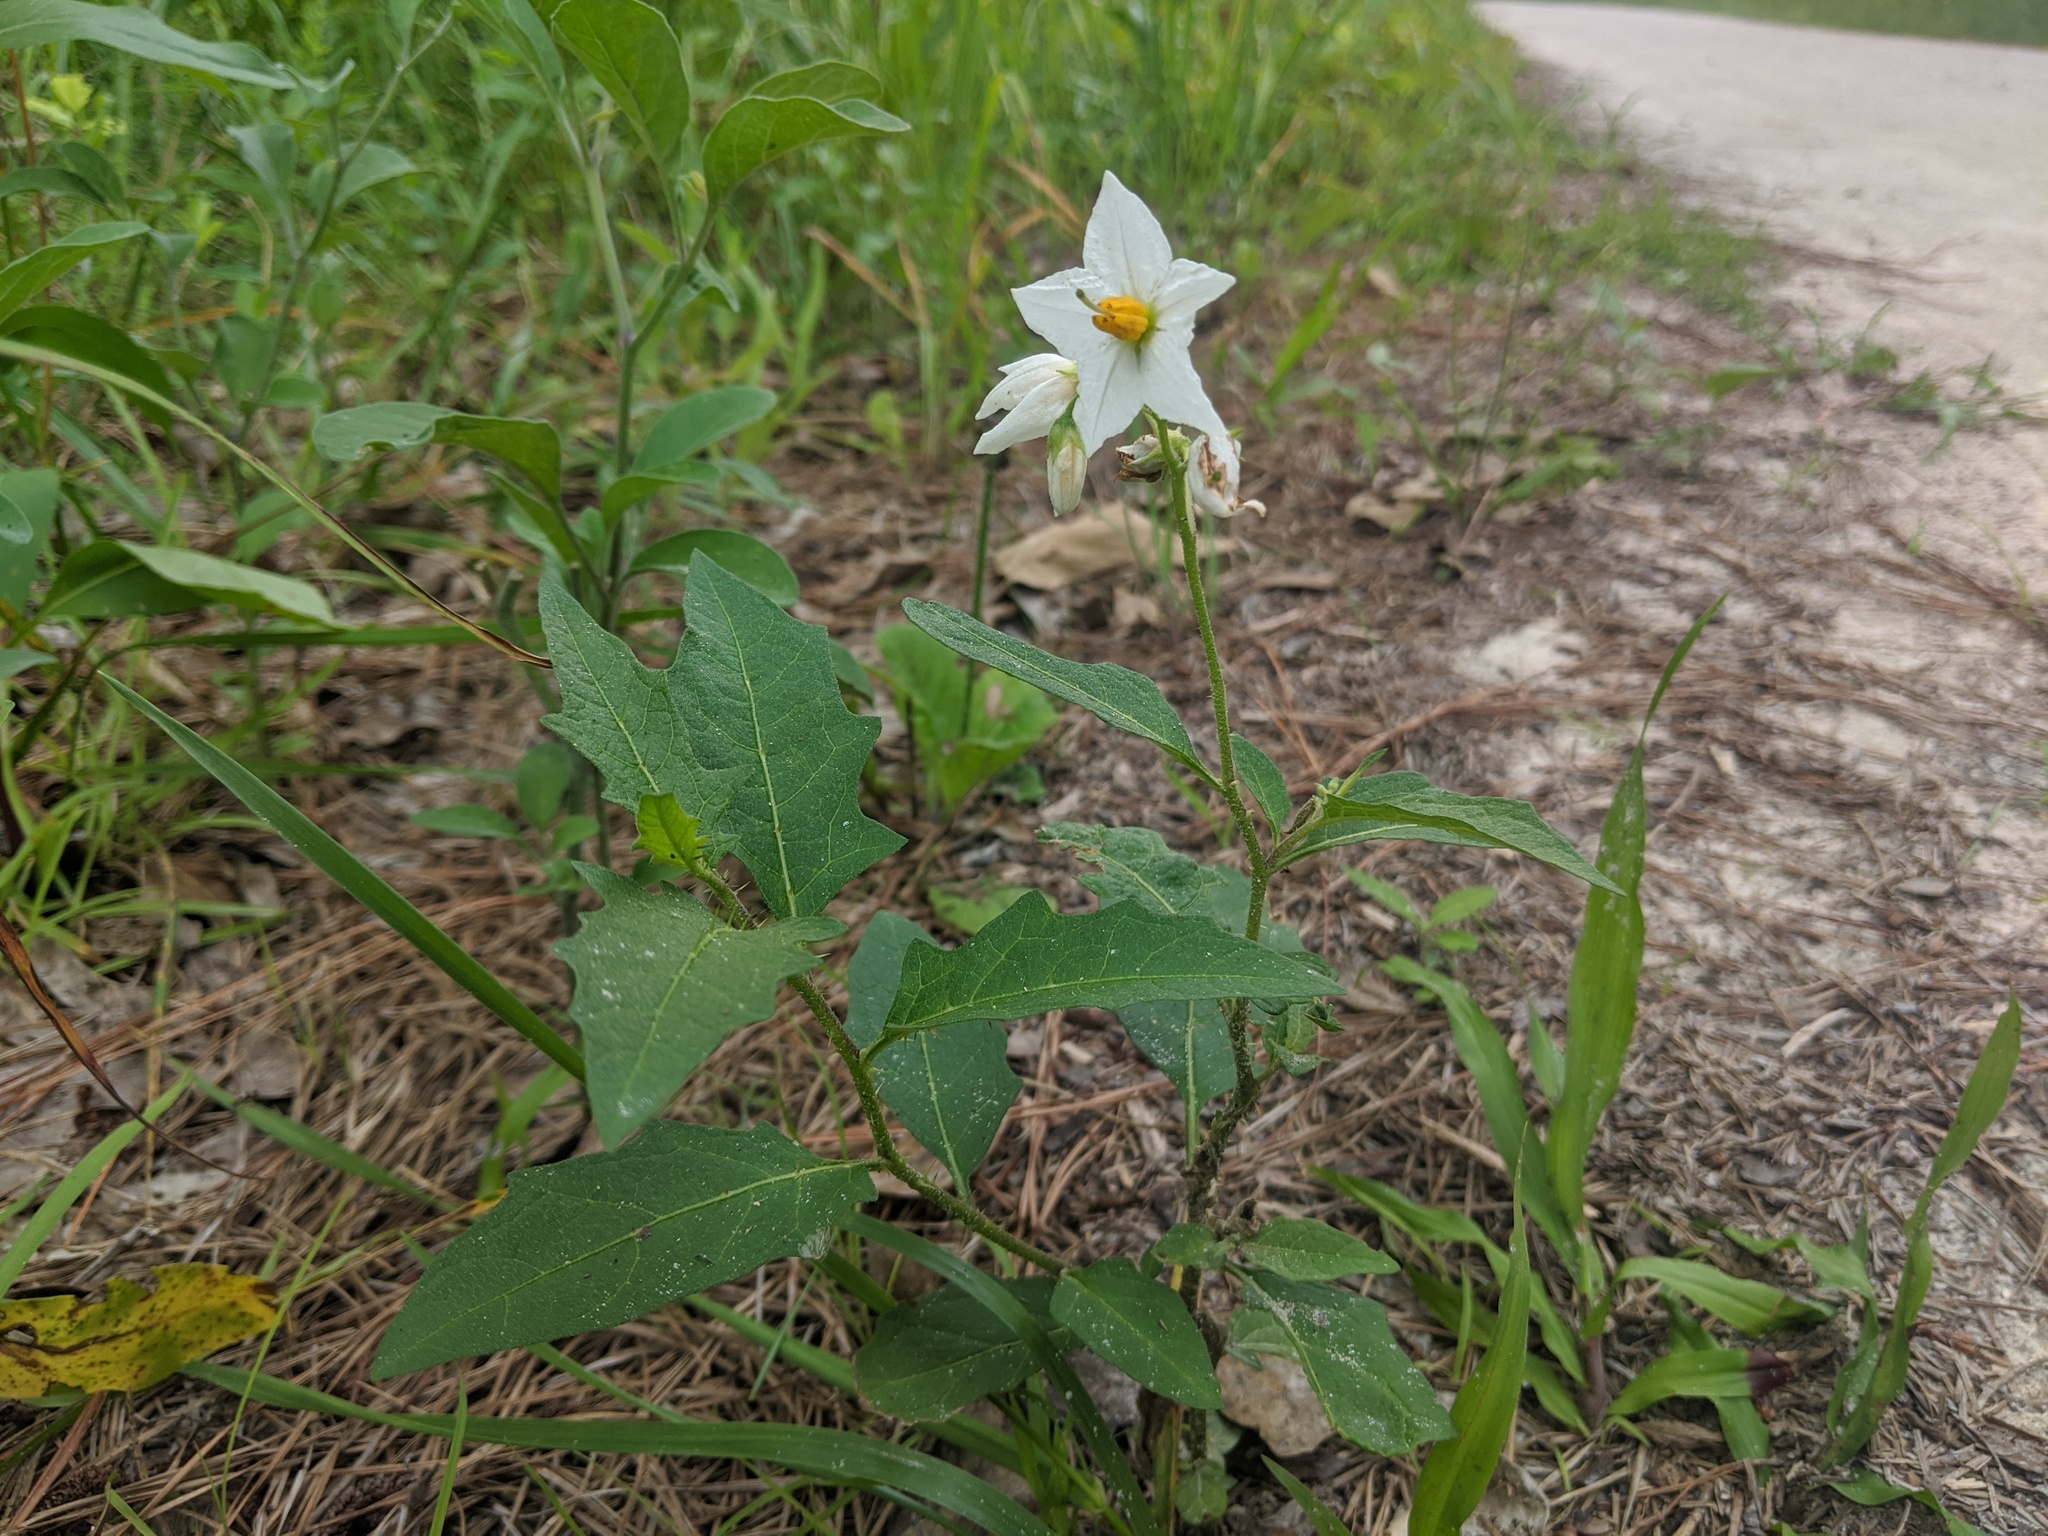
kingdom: Plantae
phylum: Tracheophyta
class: Magnoliopsida
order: Solanales
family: Solanaceae
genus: Solanum
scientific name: Solanum carolinense
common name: Horse-nettle
